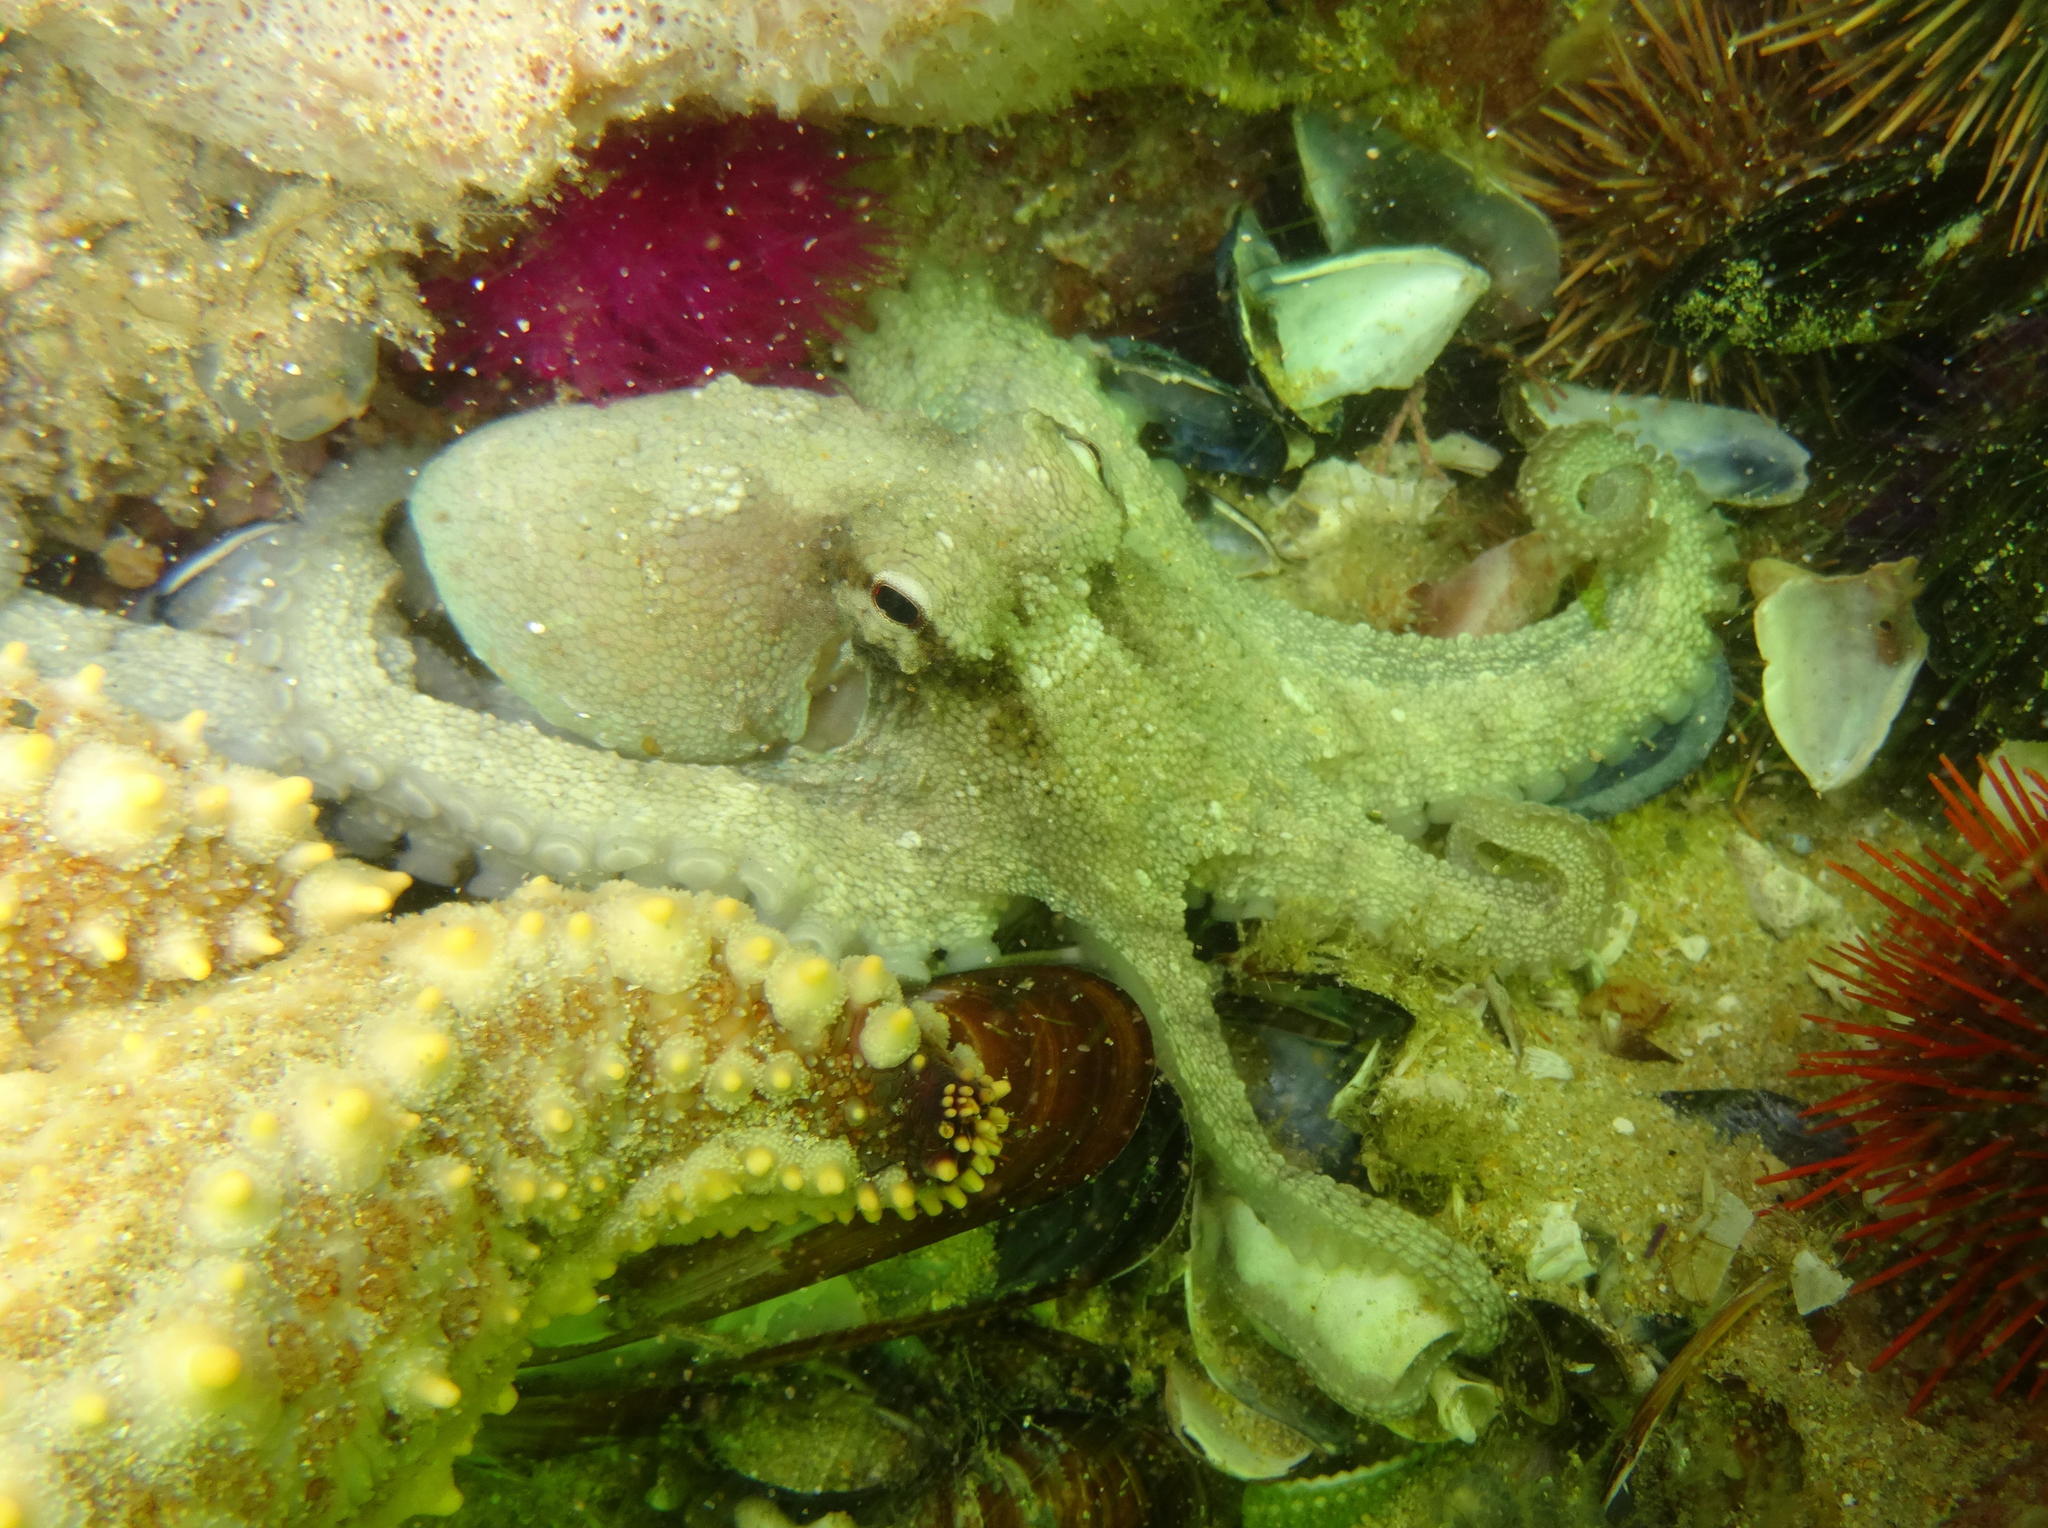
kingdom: Animalia
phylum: Mollusca
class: Cephalopoda
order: Octopoda
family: Octopodidae
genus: Octopus
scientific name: Octopus vulgaris
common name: Common octopus
